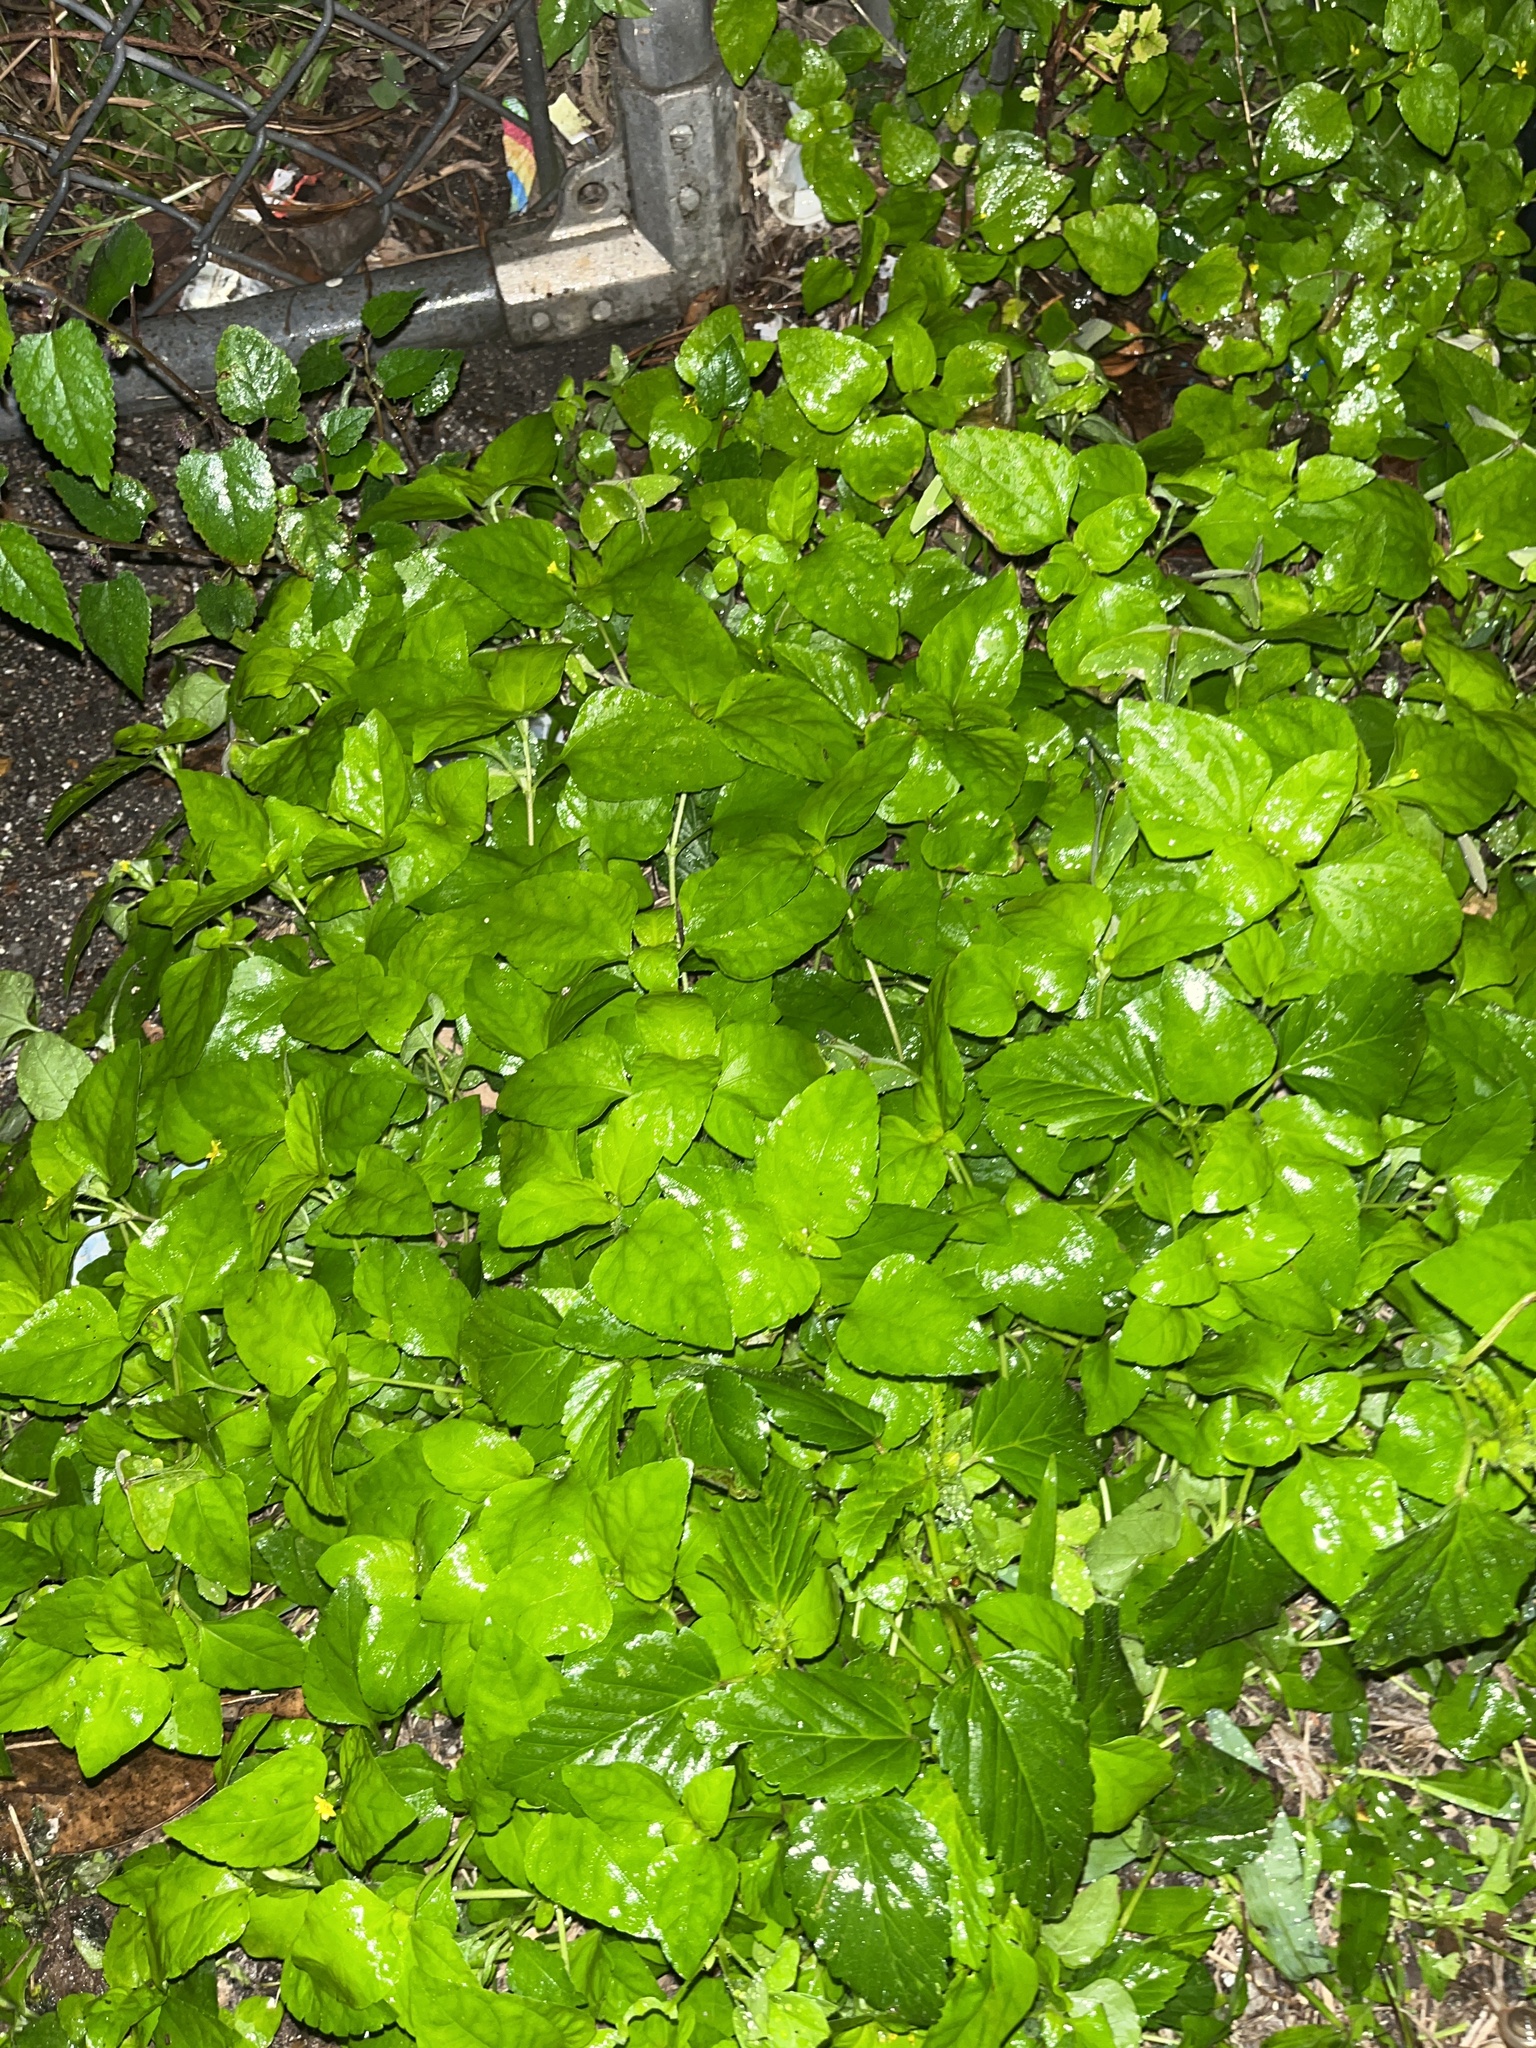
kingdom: Plantae
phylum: Tracheophyta
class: Magnoliopsida
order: Asterales
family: Asteraceae
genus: Calyptocarpus
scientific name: Calyptocarpus vialis
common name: Straggler daisy
